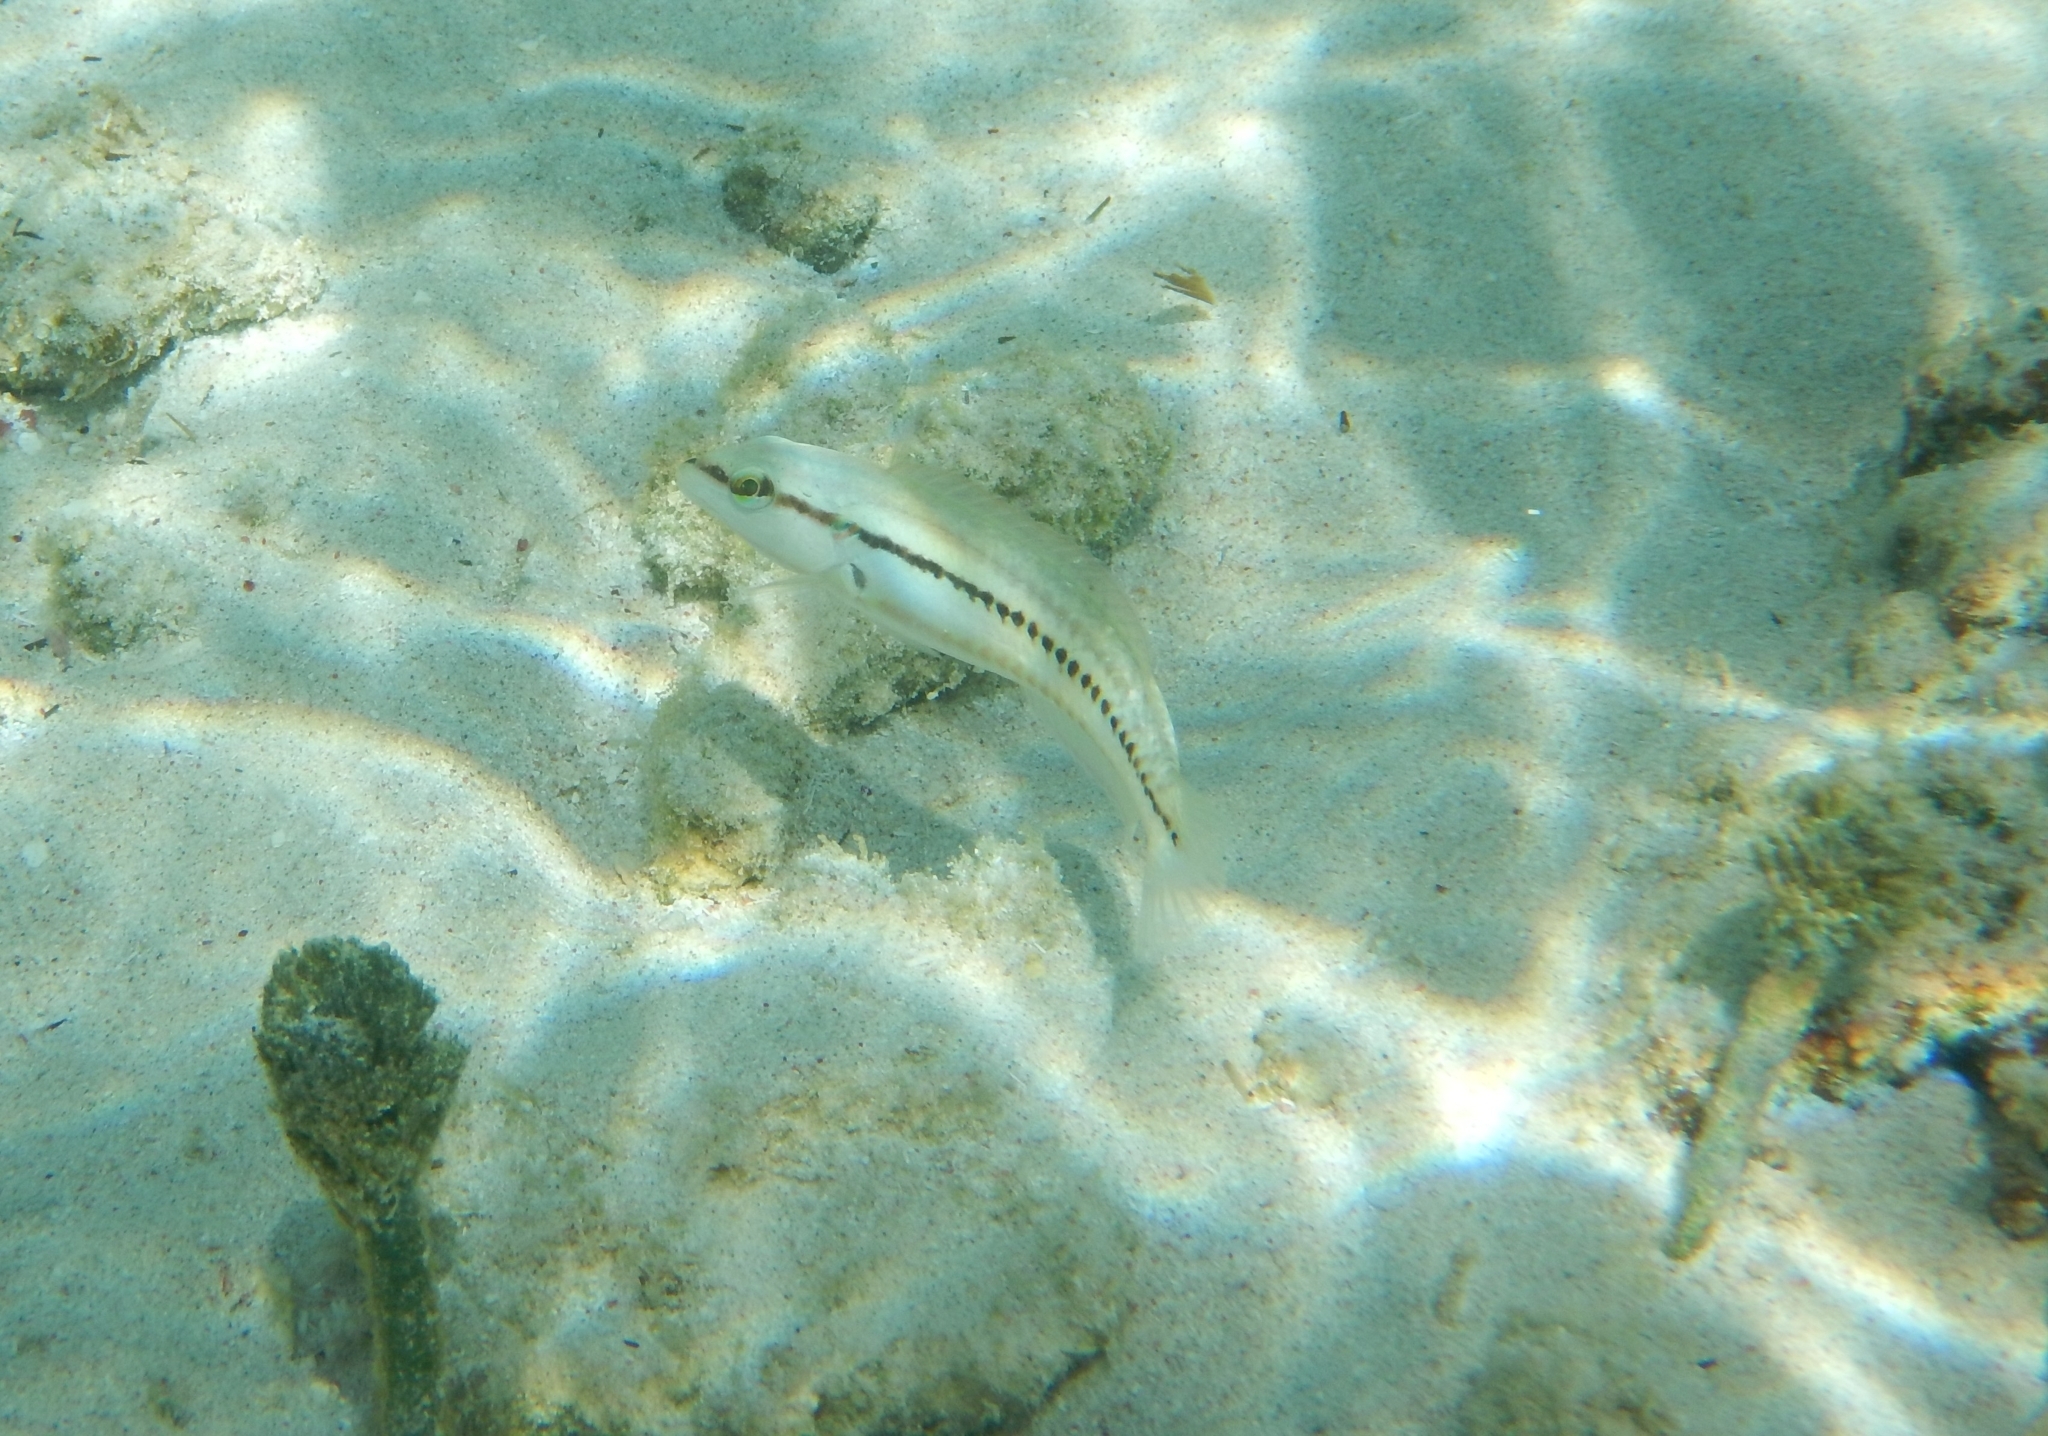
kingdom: Animalia
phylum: Chordata
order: Perciformes
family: Labridae
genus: Halichoeres
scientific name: Halichoeres bivittatus
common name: Slippery dick
